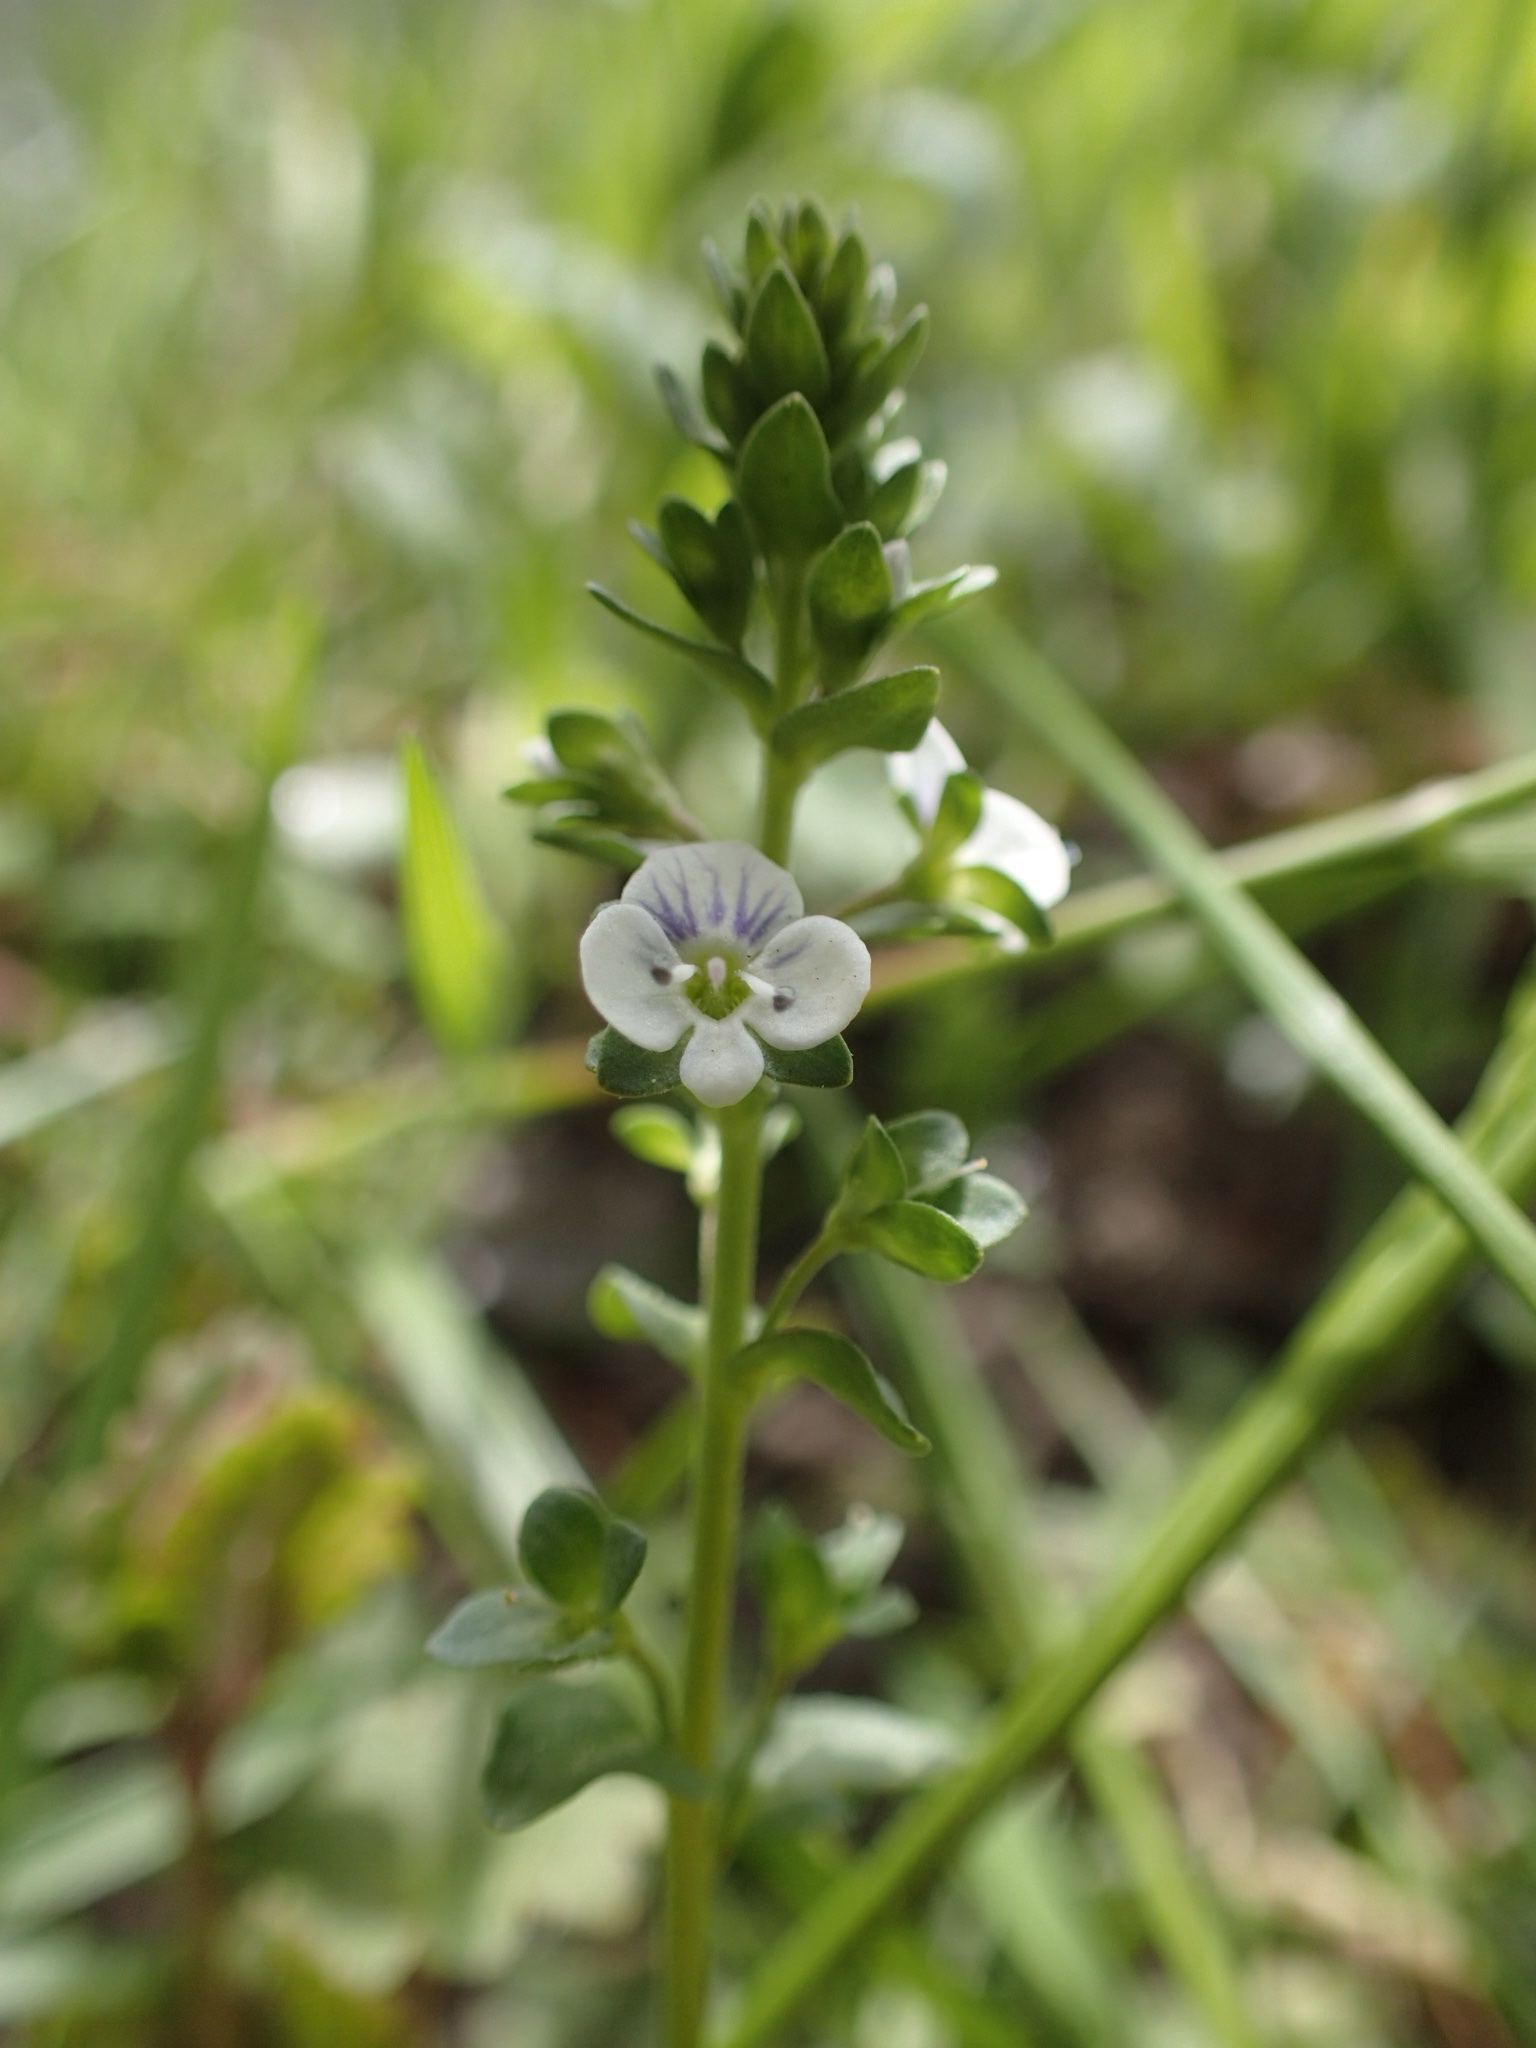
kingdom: Plantae
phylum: Tracheophyta
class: Magnoliopsida
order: Lamiales
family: Plantaginaceae
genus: Veronica
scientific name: Veronica serpyllifolia
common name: Thyme-leaved speedwell
